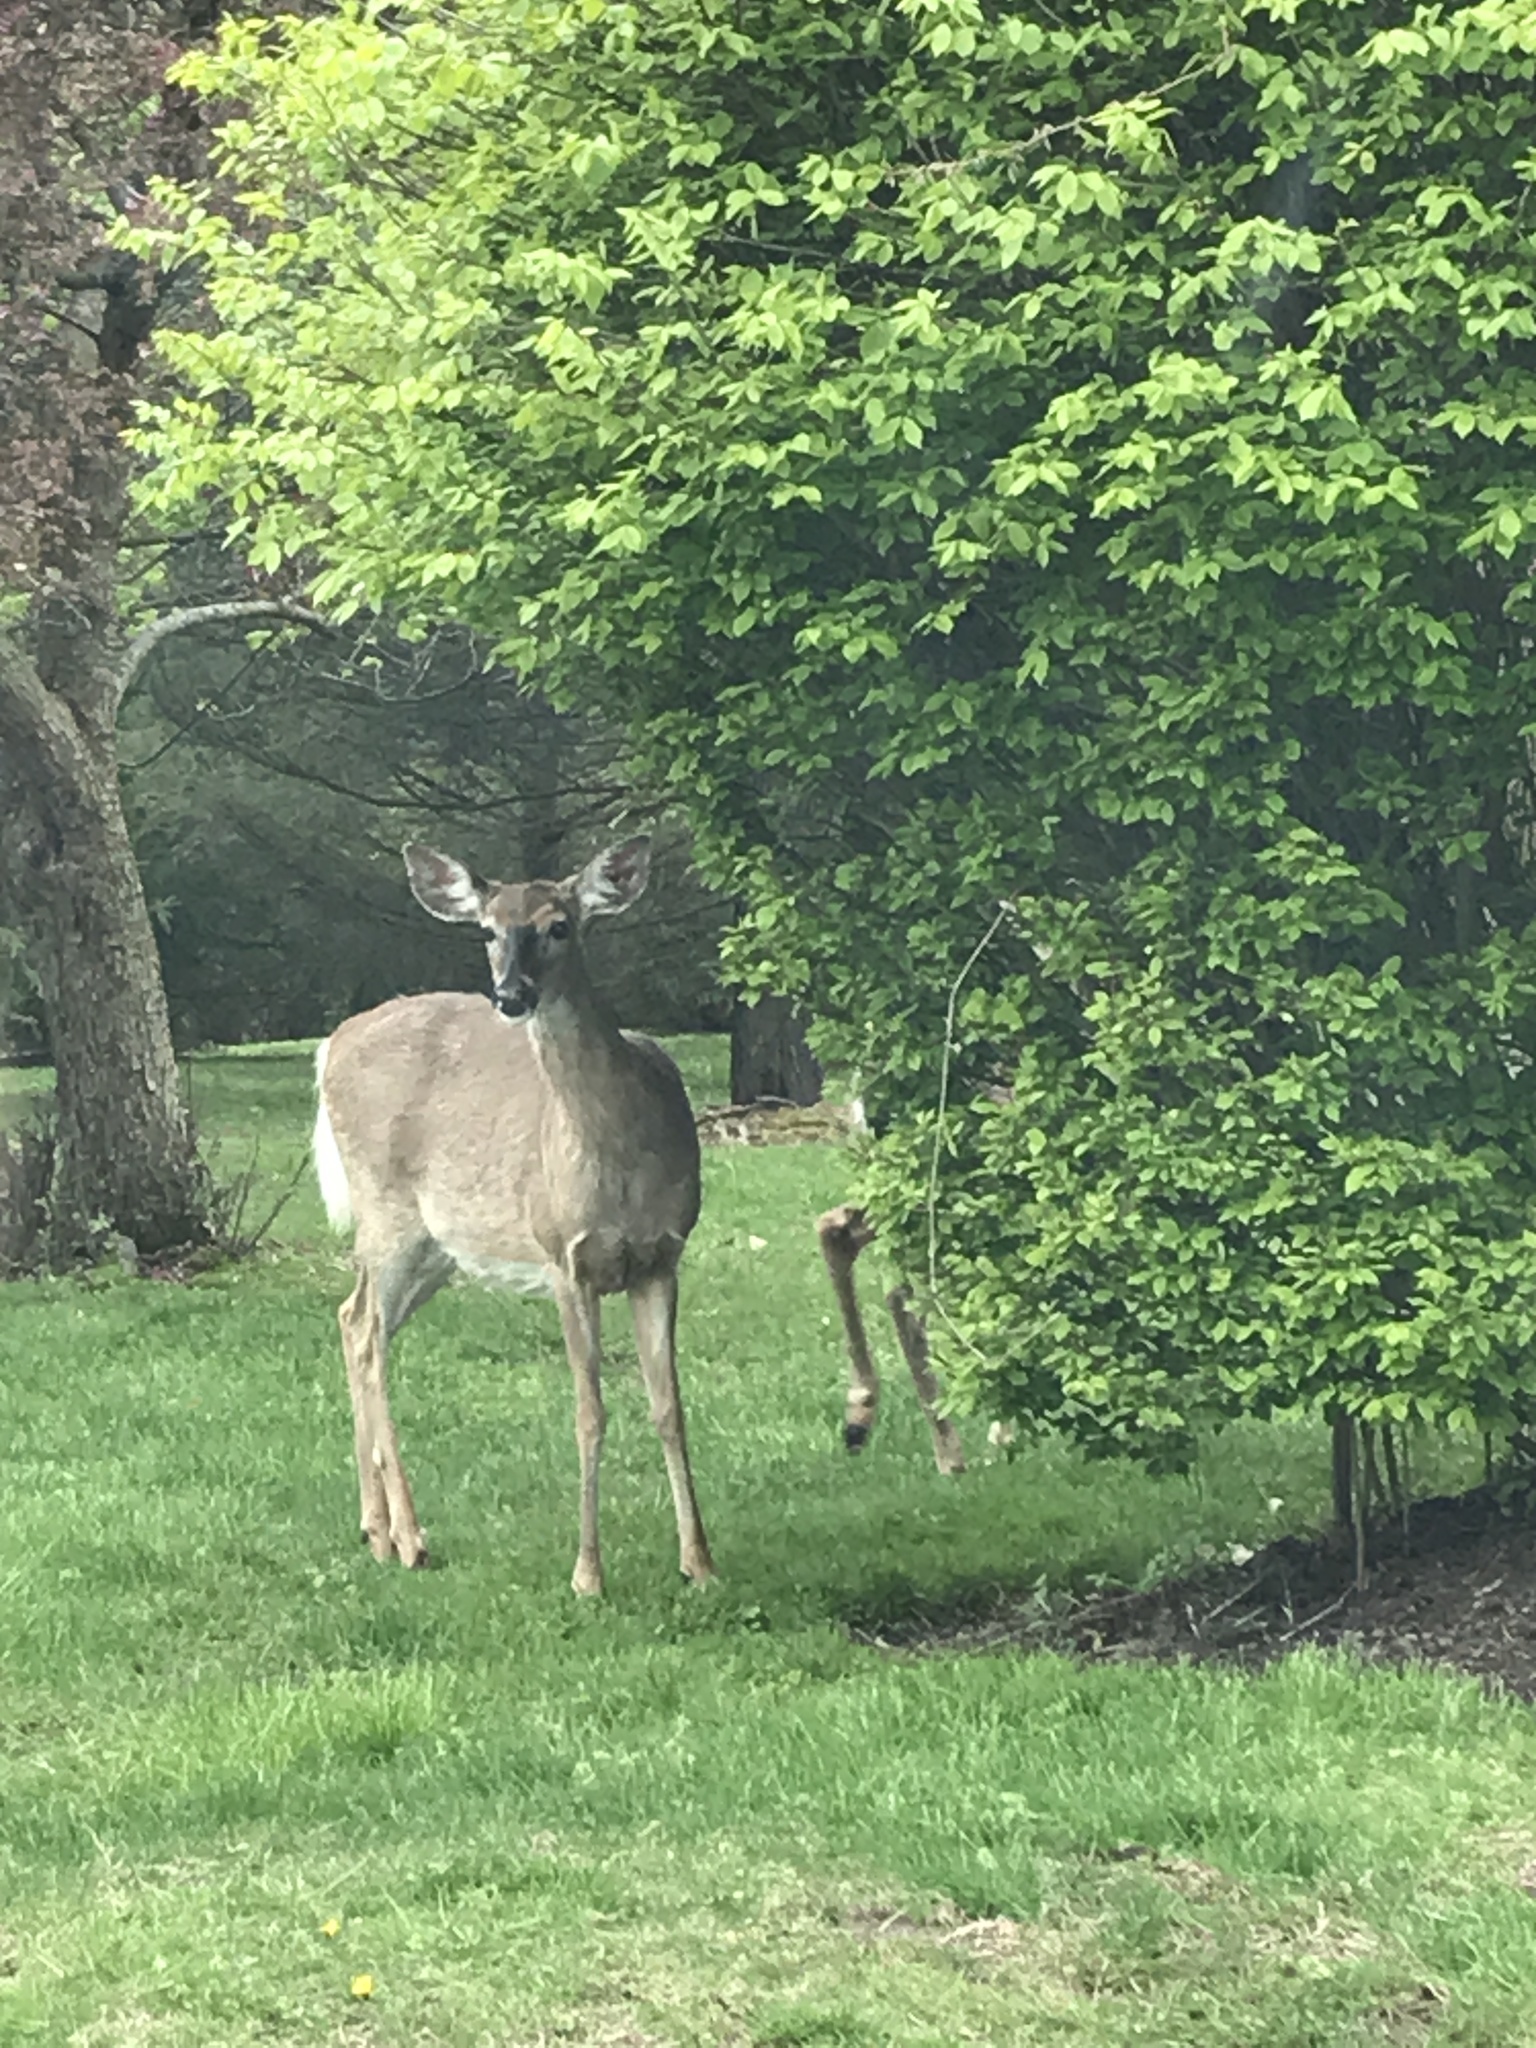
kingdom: Animalia
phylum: Chordata
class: Mammalia
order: Artiodactyla
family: Cervidae
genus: Odocoileus
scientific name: Odocoileus virginianus
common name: White-tailed deer
